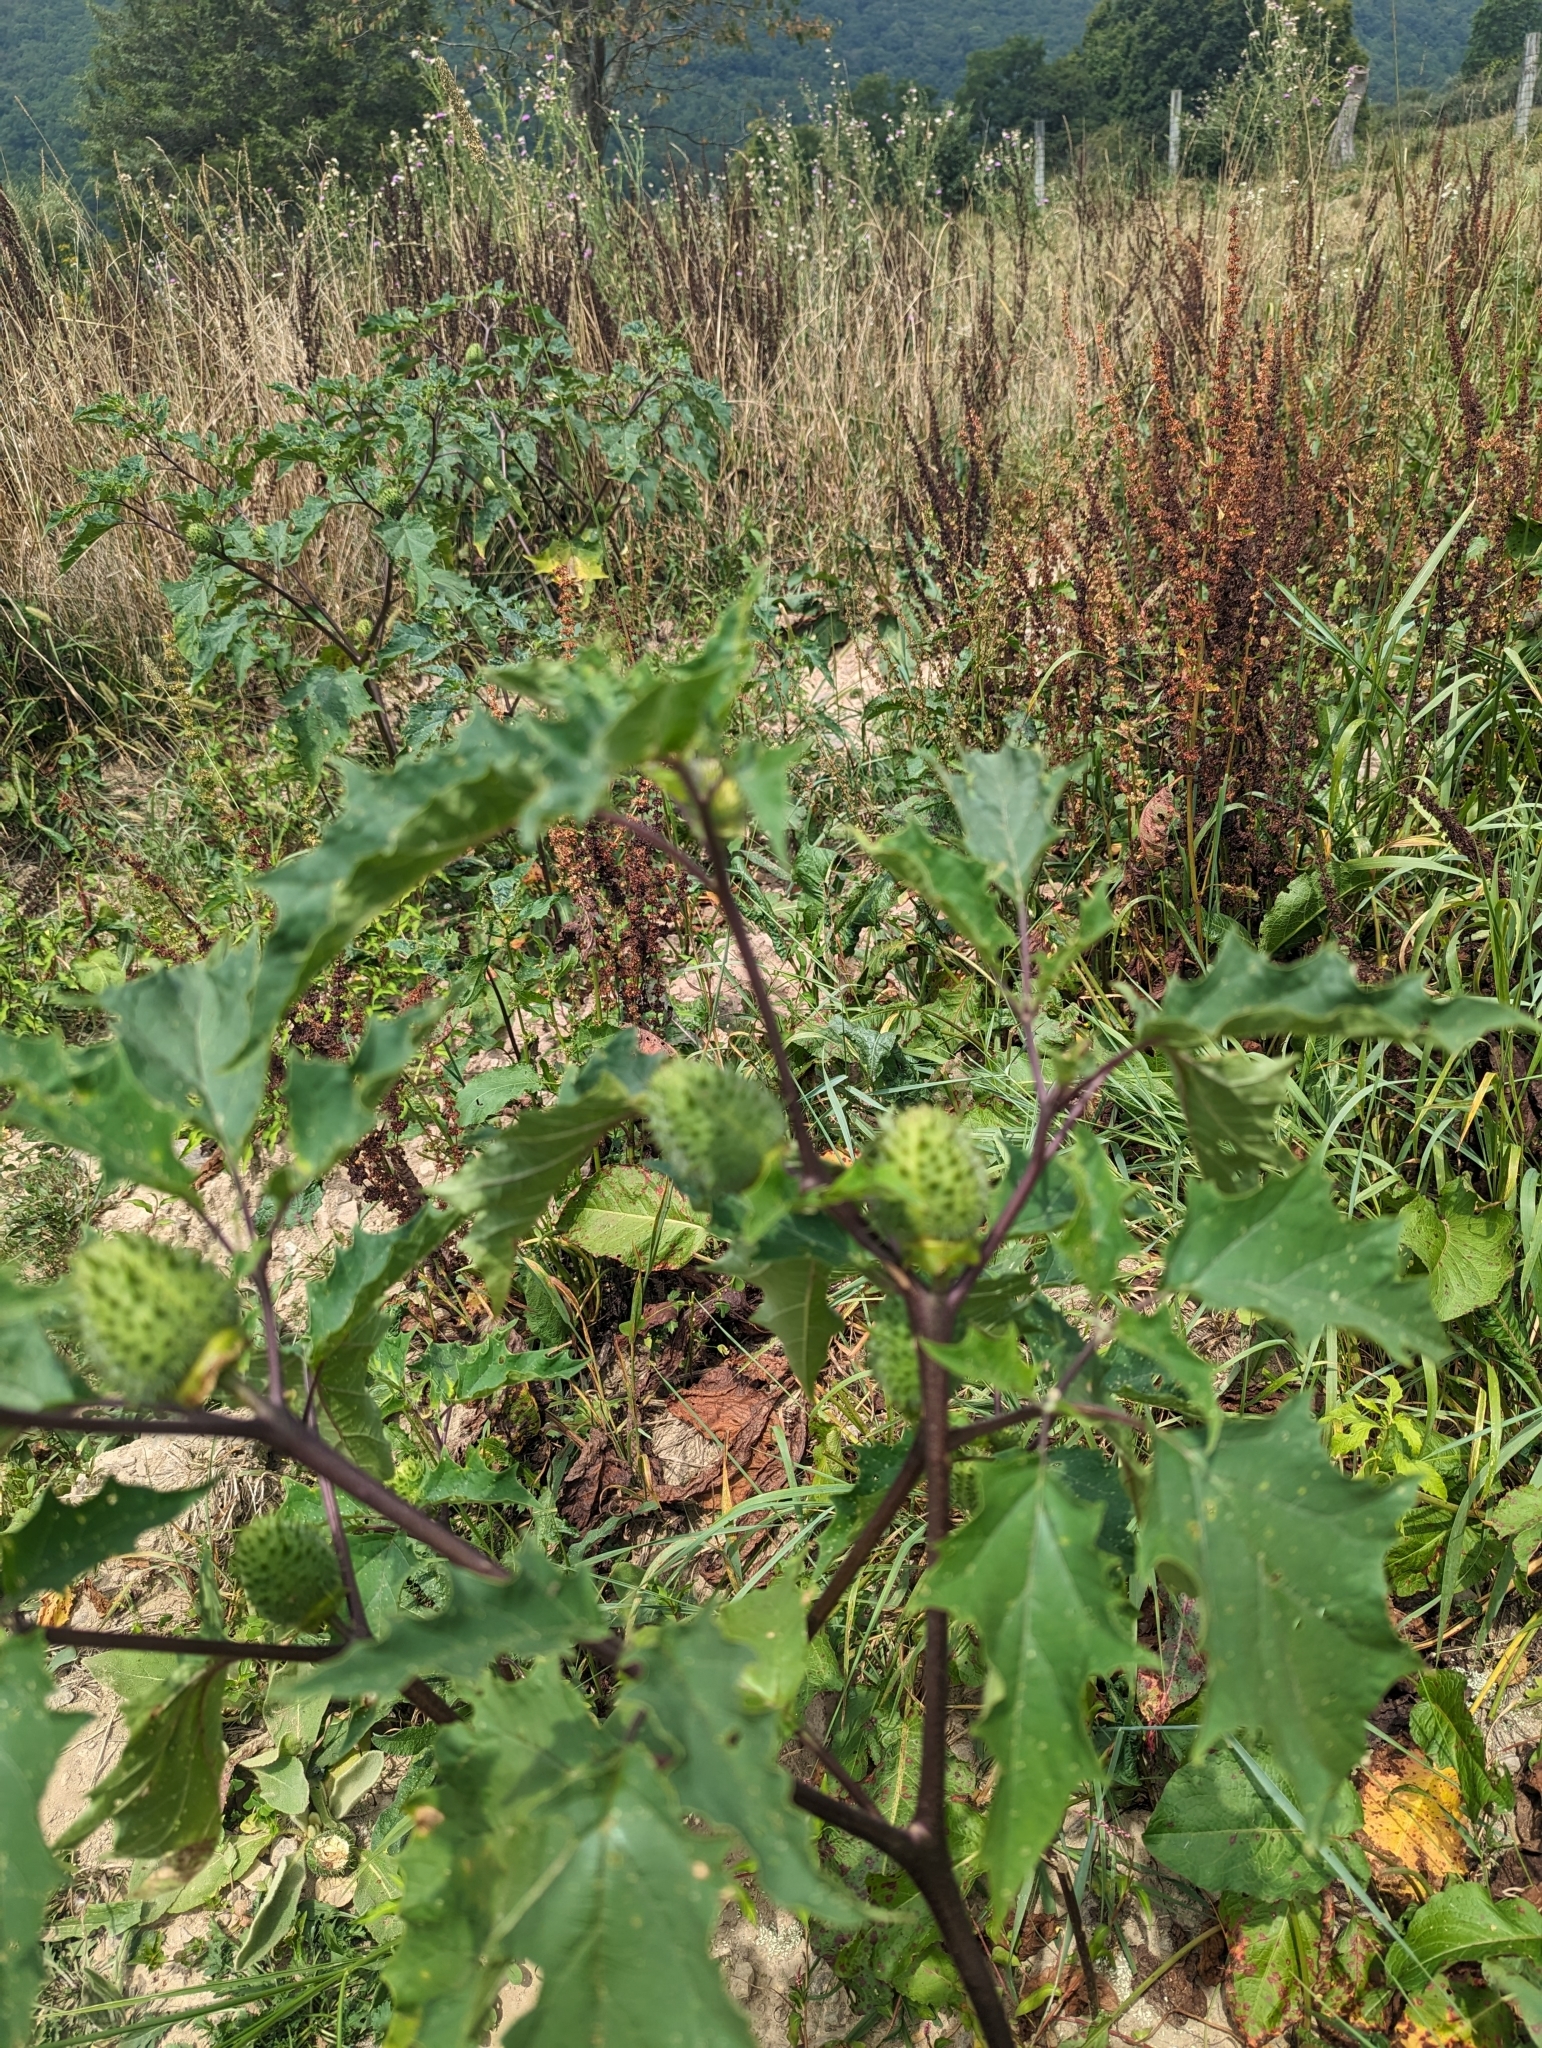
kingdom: Plantae
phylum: Tracheophyta
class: Magnoliopsida
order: Solanales
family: Solanaceae
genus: Datura
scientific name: Datura stramonium
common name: Thorn-apple
